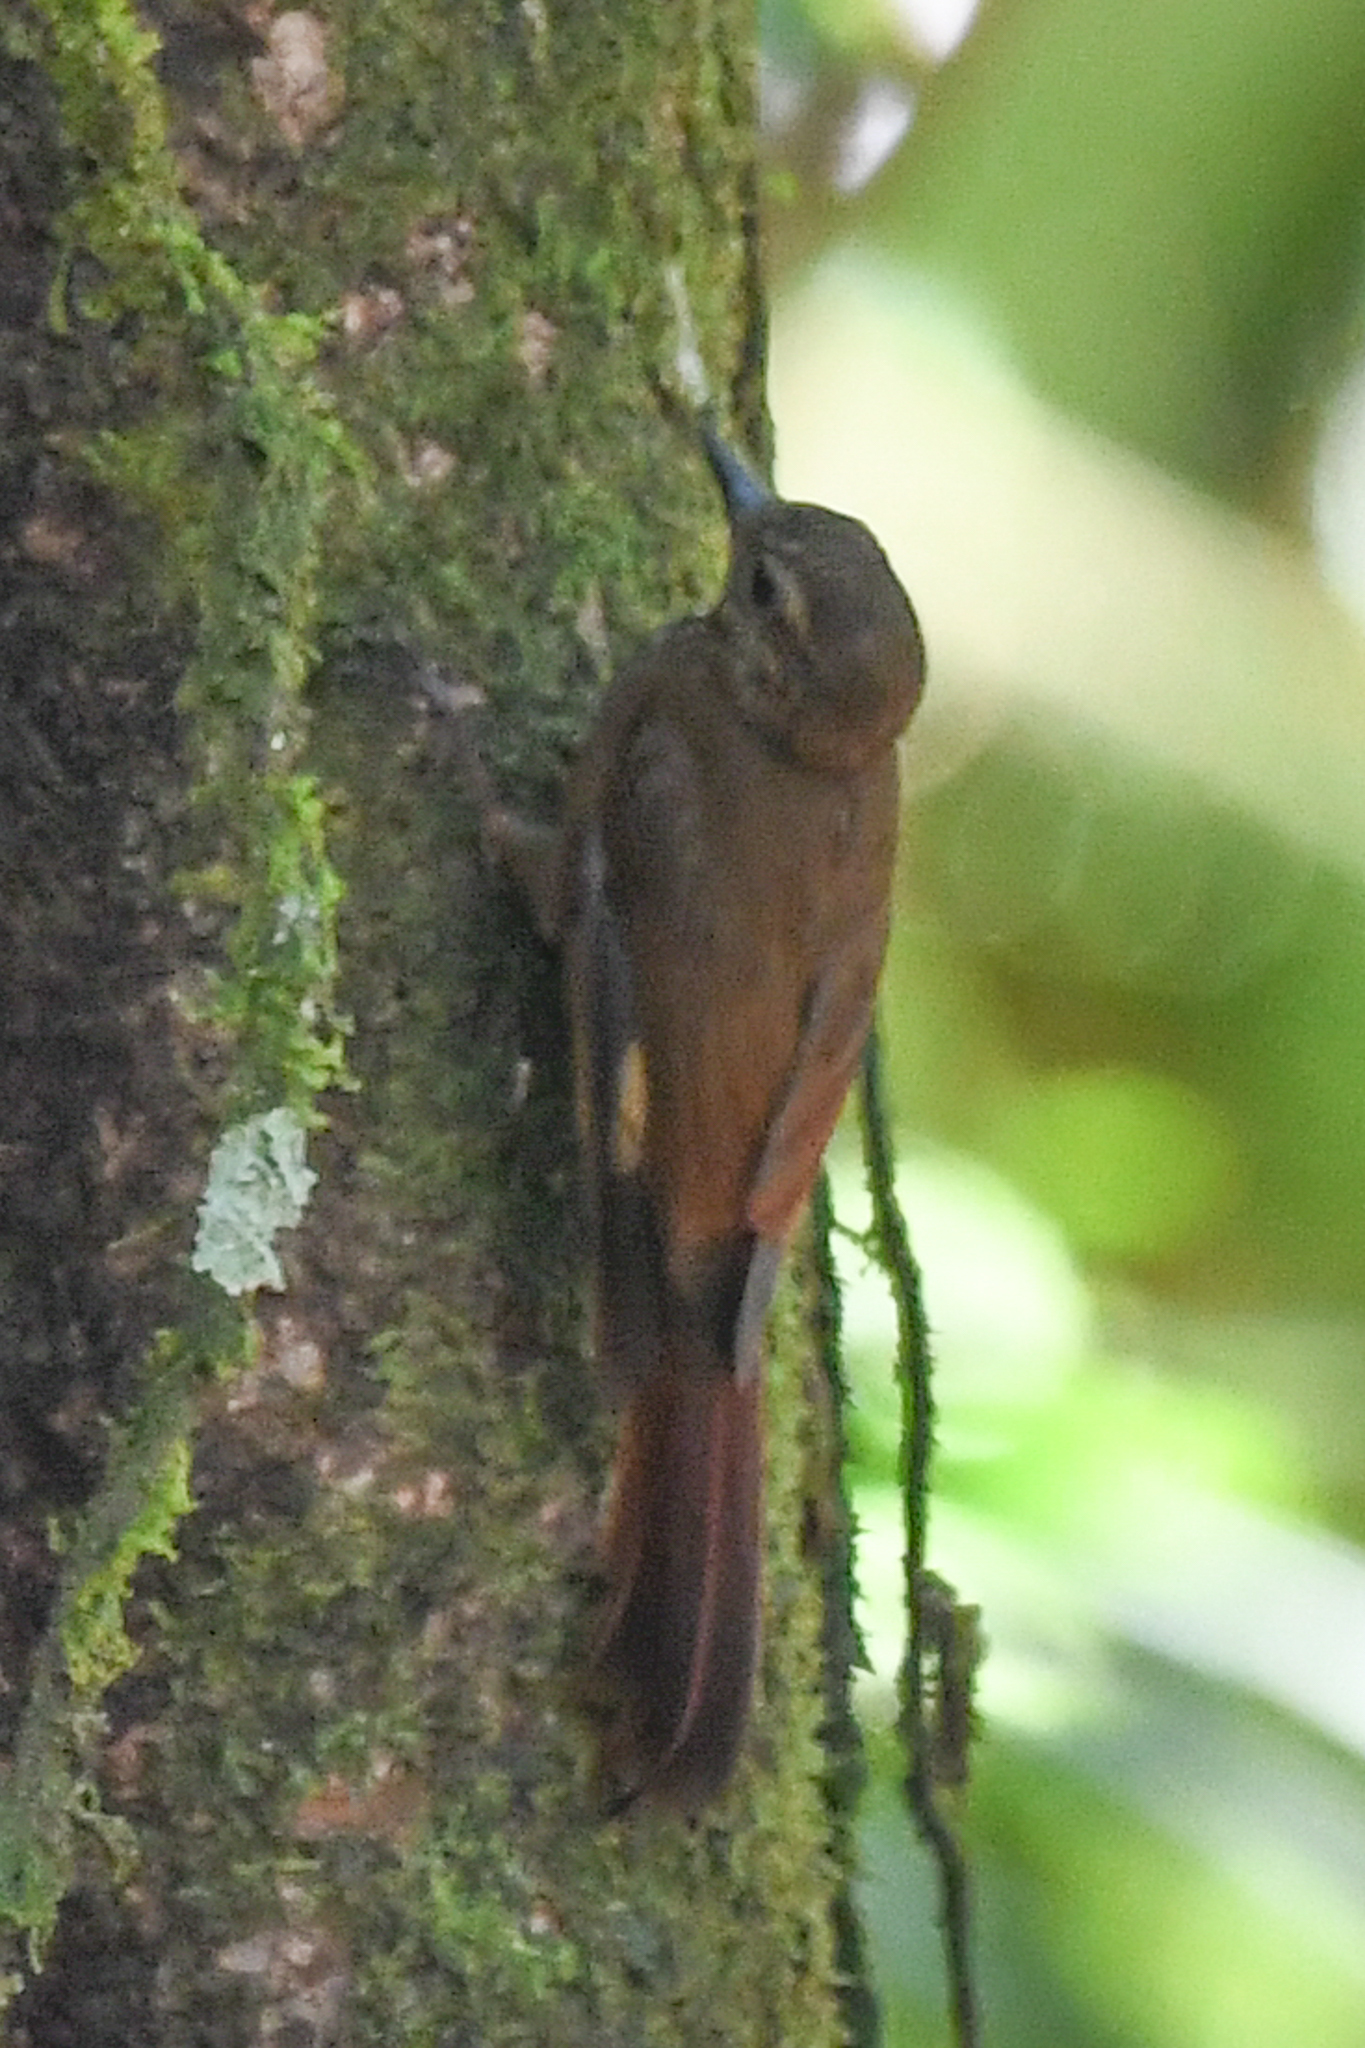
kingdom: Animalia
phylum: Chordata
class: Aves
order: Passeriformes
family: Furnariidae
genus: Glyphorynchus
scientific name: Glyphorynchus spirurus
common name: Wedge-billed woodcreeper
